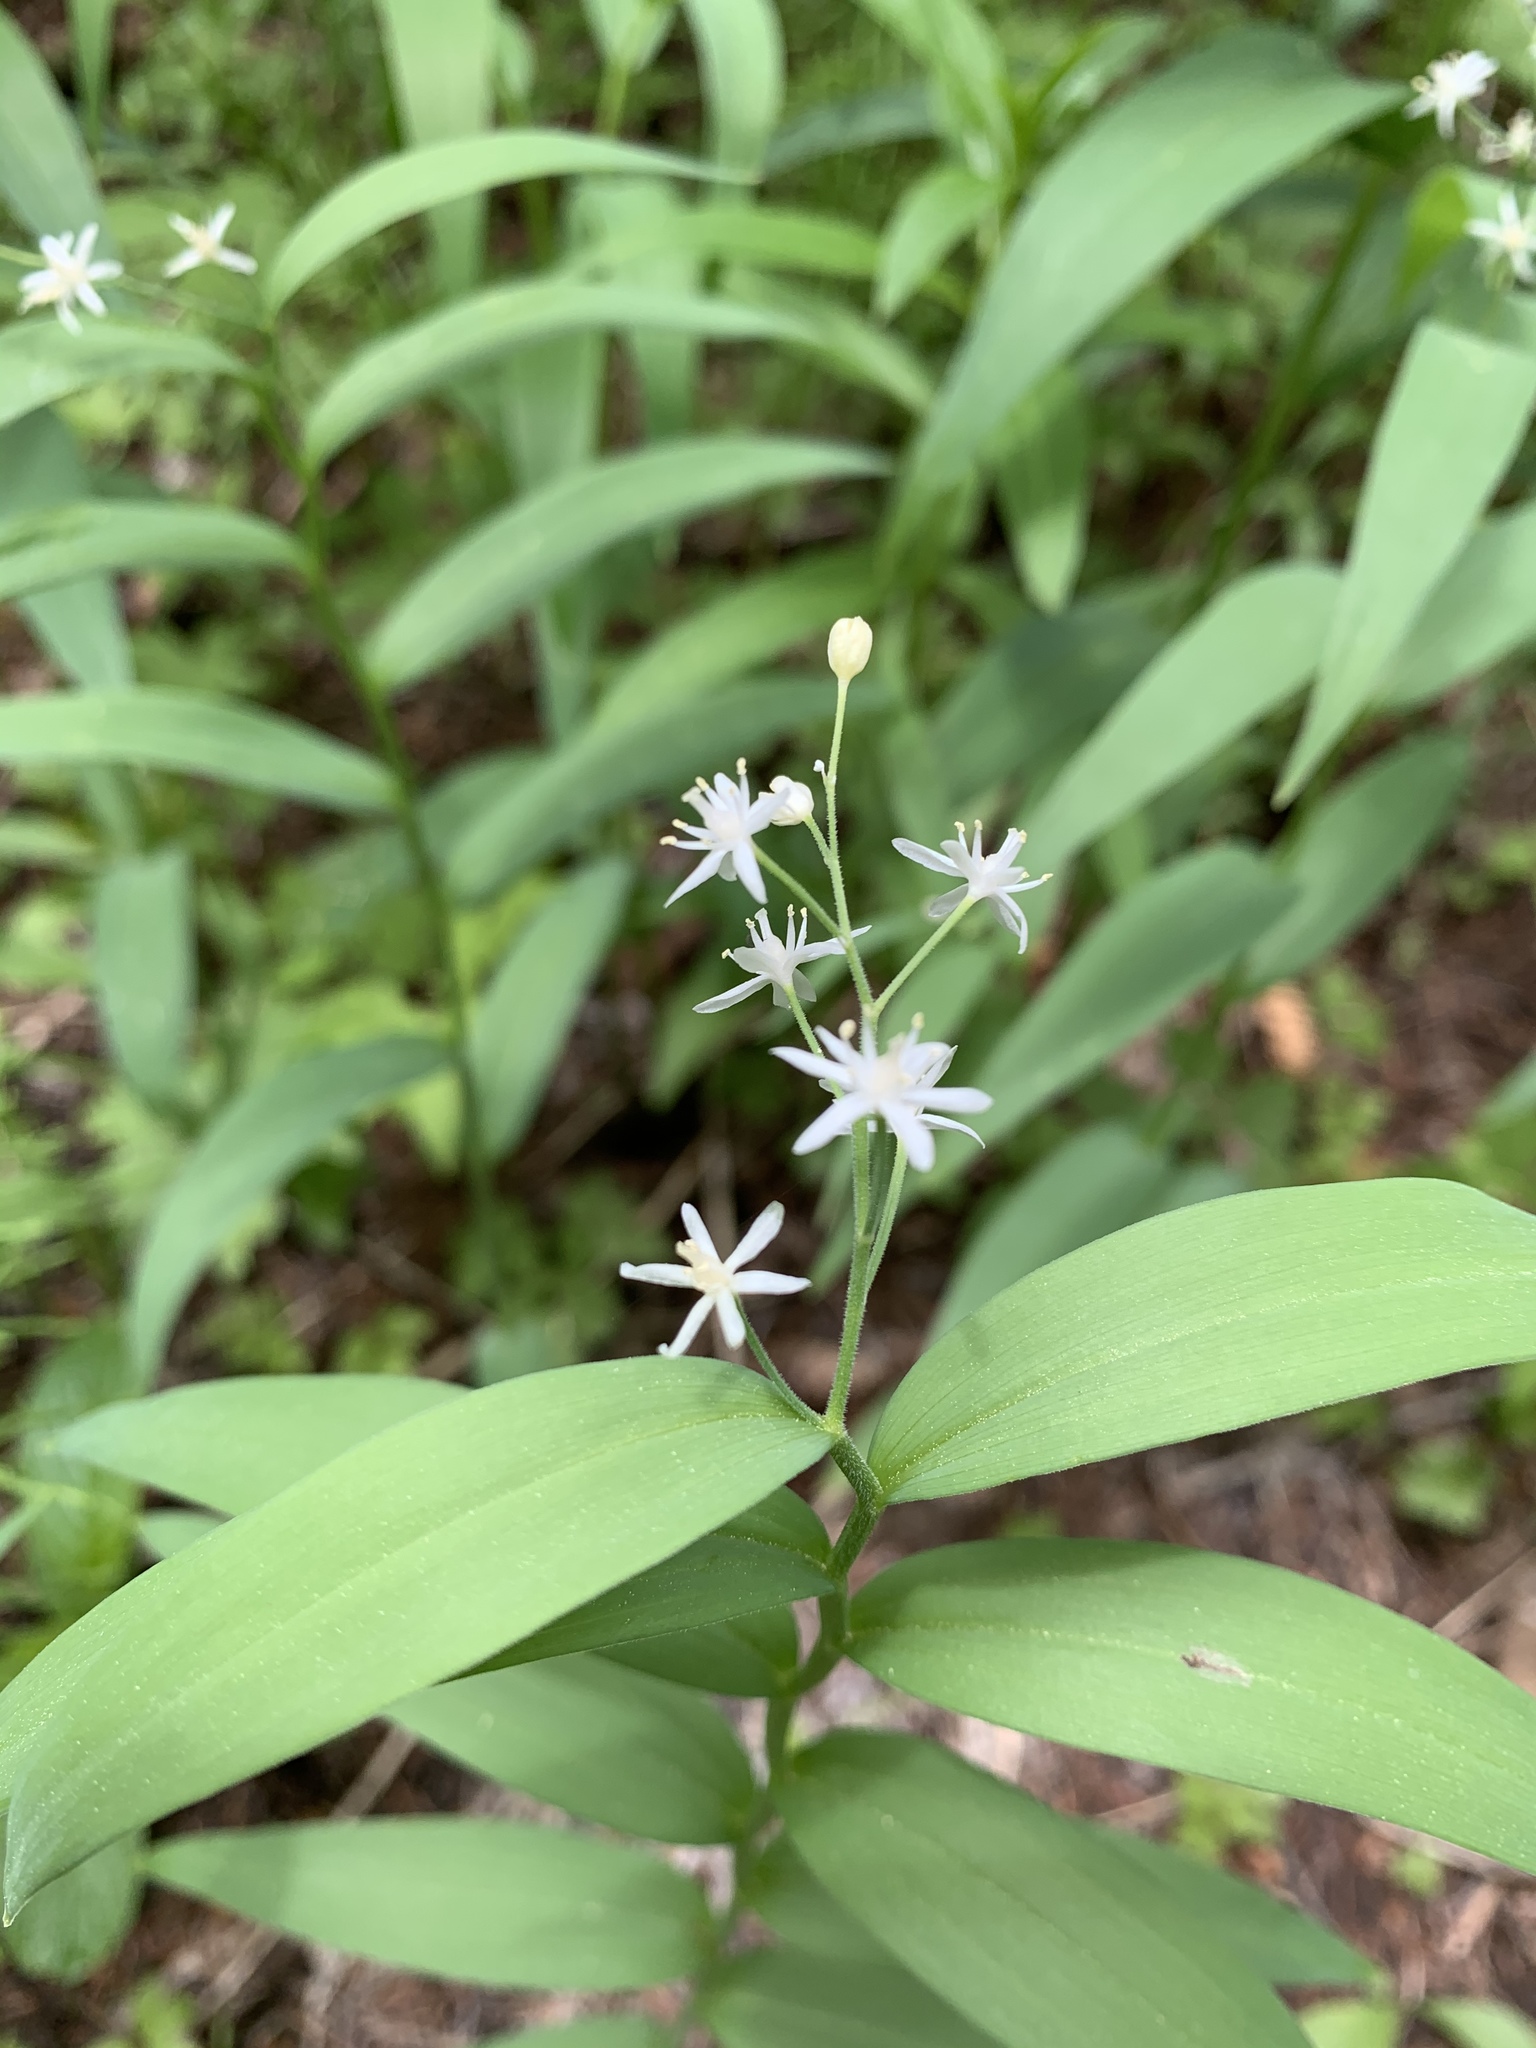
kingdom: Plantae
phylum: Tracheophyta
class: Liliopsida
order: Asparagales
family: Asparagaceae
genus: Maianthemum
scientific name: Maianthemum stellatum
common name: Little false solomon's seal
